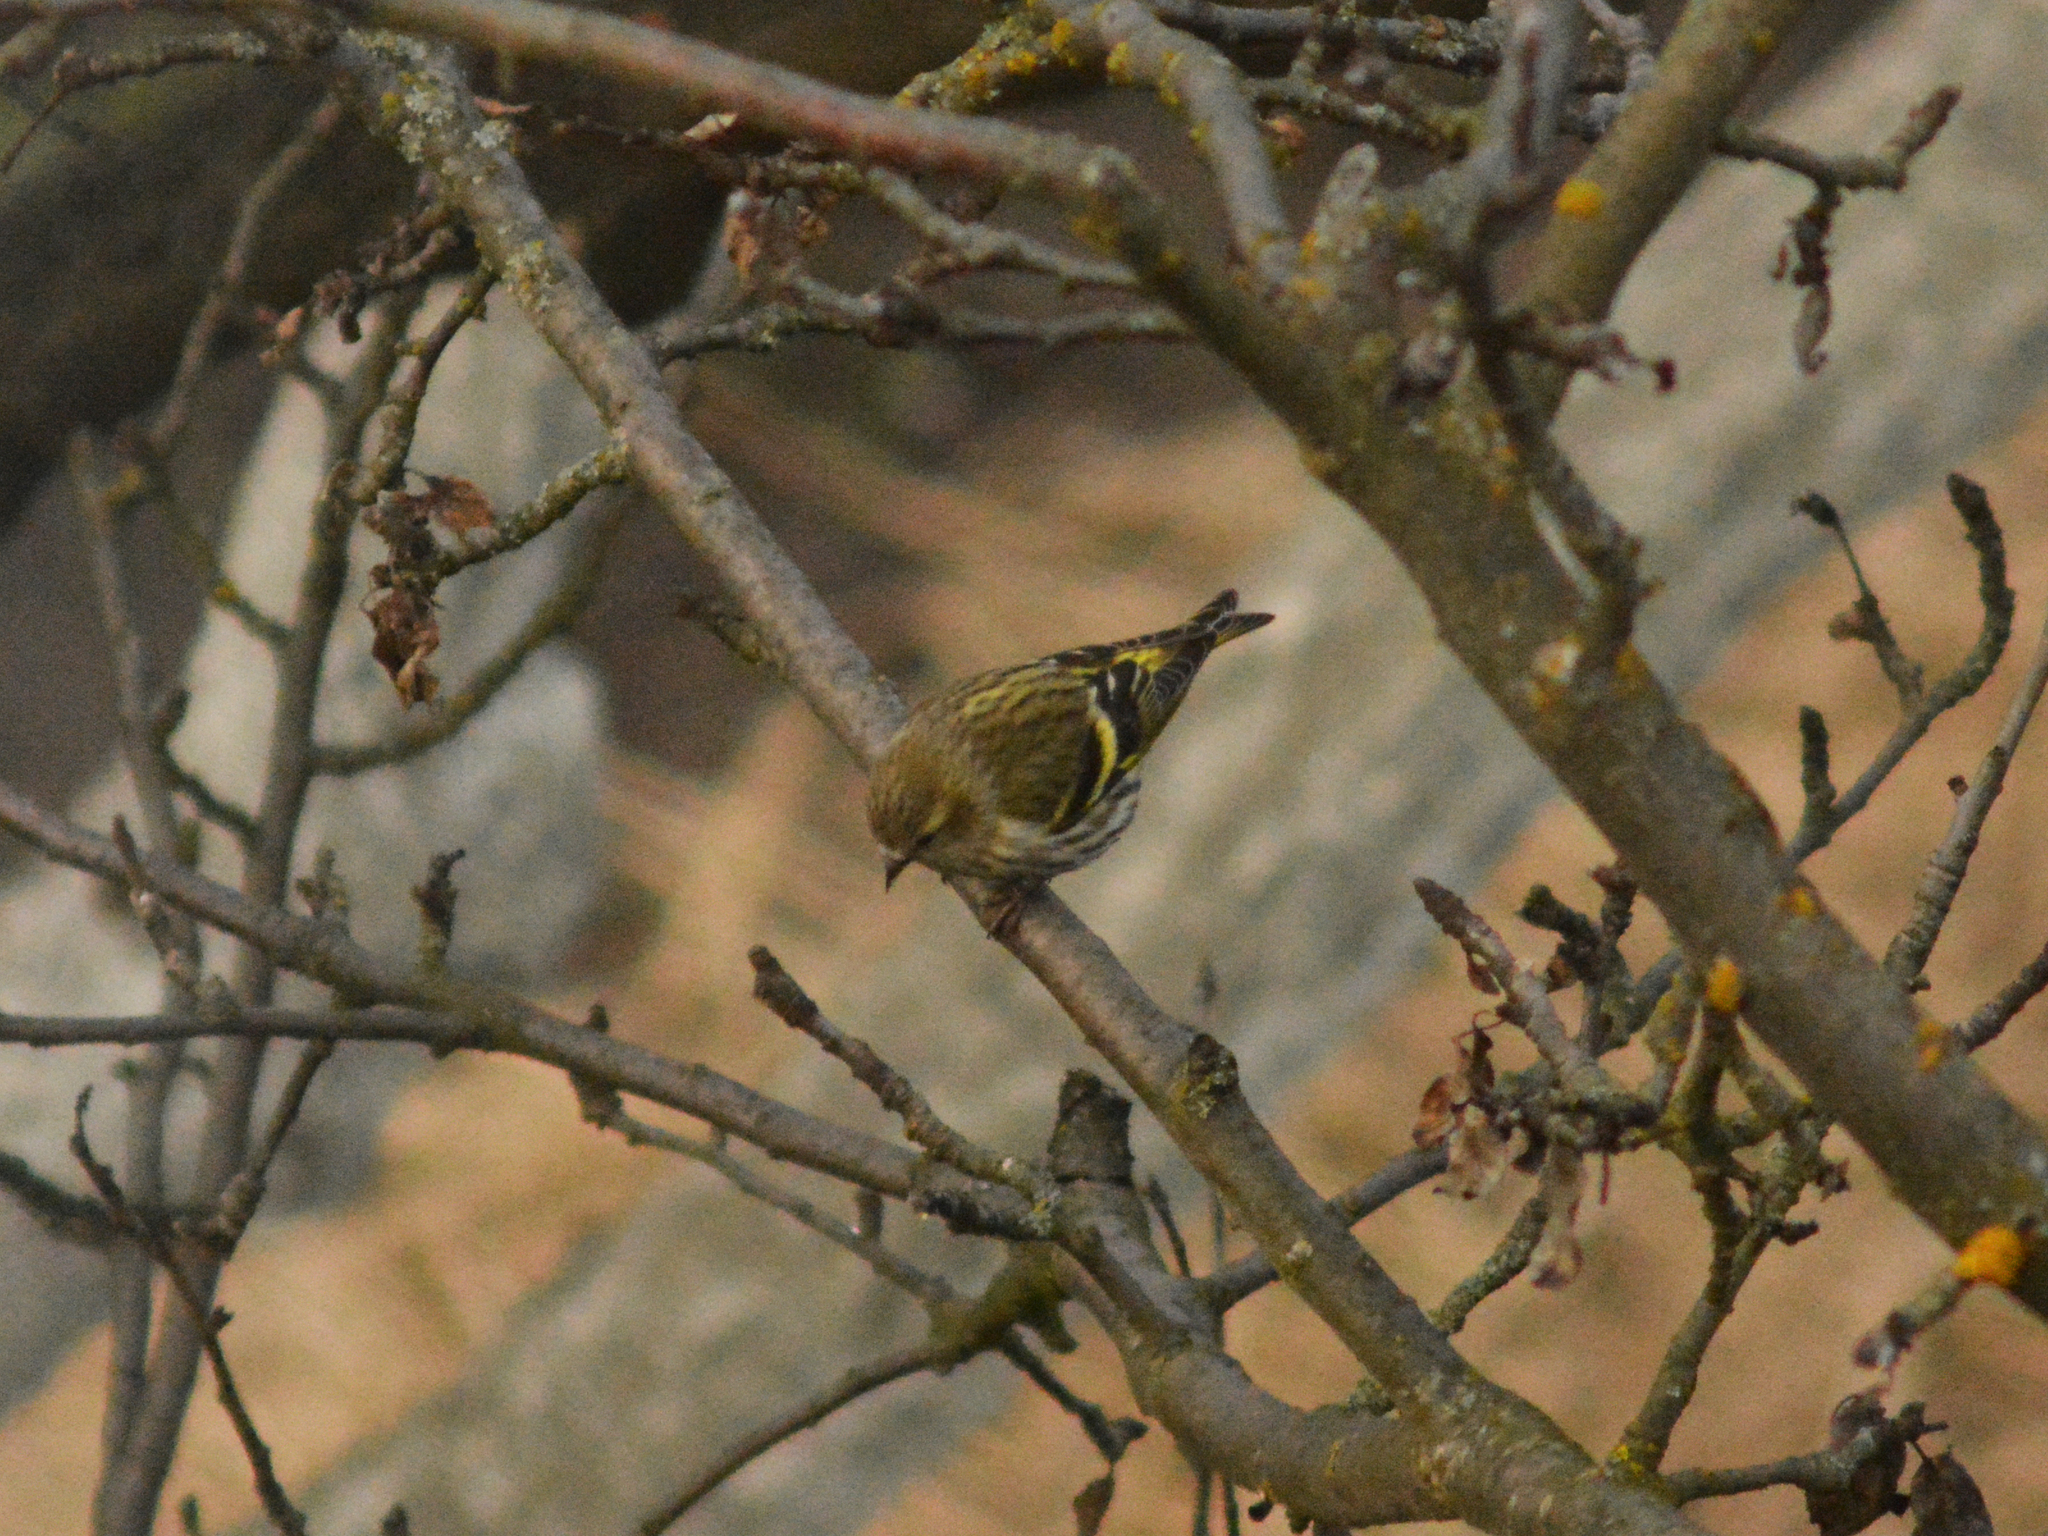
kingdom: Animalia
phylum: Chordata
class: Aves
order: Passeriformes
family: Fringillidae
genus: Spinus
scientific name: Spinus spinus
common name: Eurasian siskin
